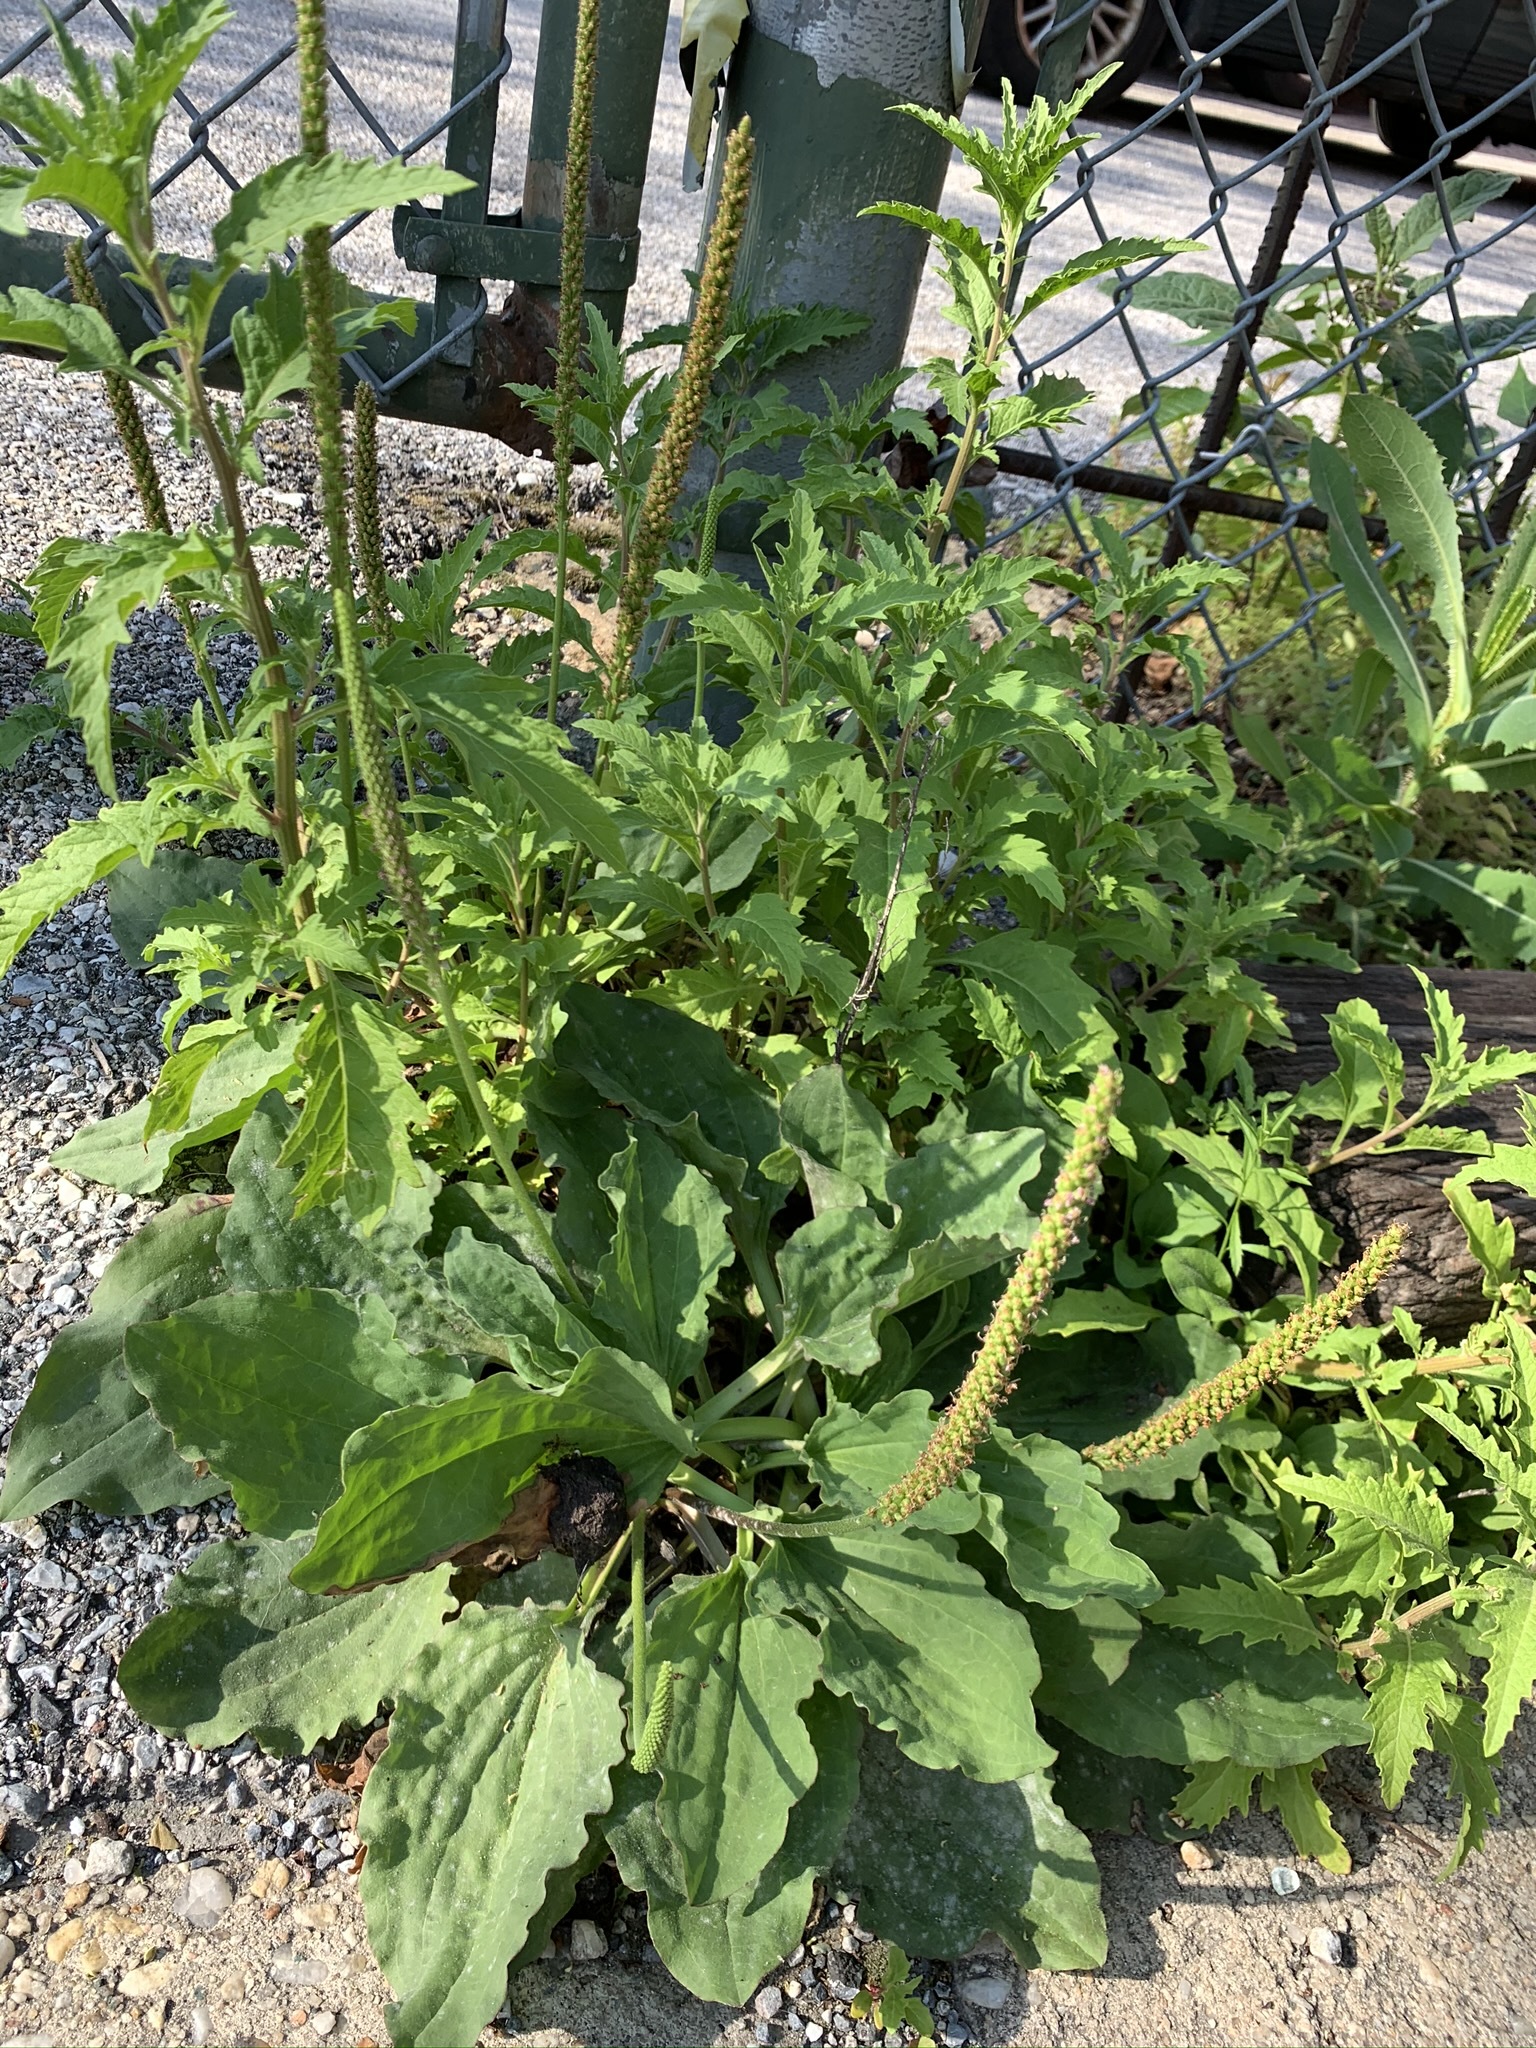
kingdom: Plantae
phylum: Tracheophyta
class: Magnoliopsida
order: Lamiales
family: Plantaginaceae
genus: Plantago
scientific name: Plantago major
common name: Common plantain
